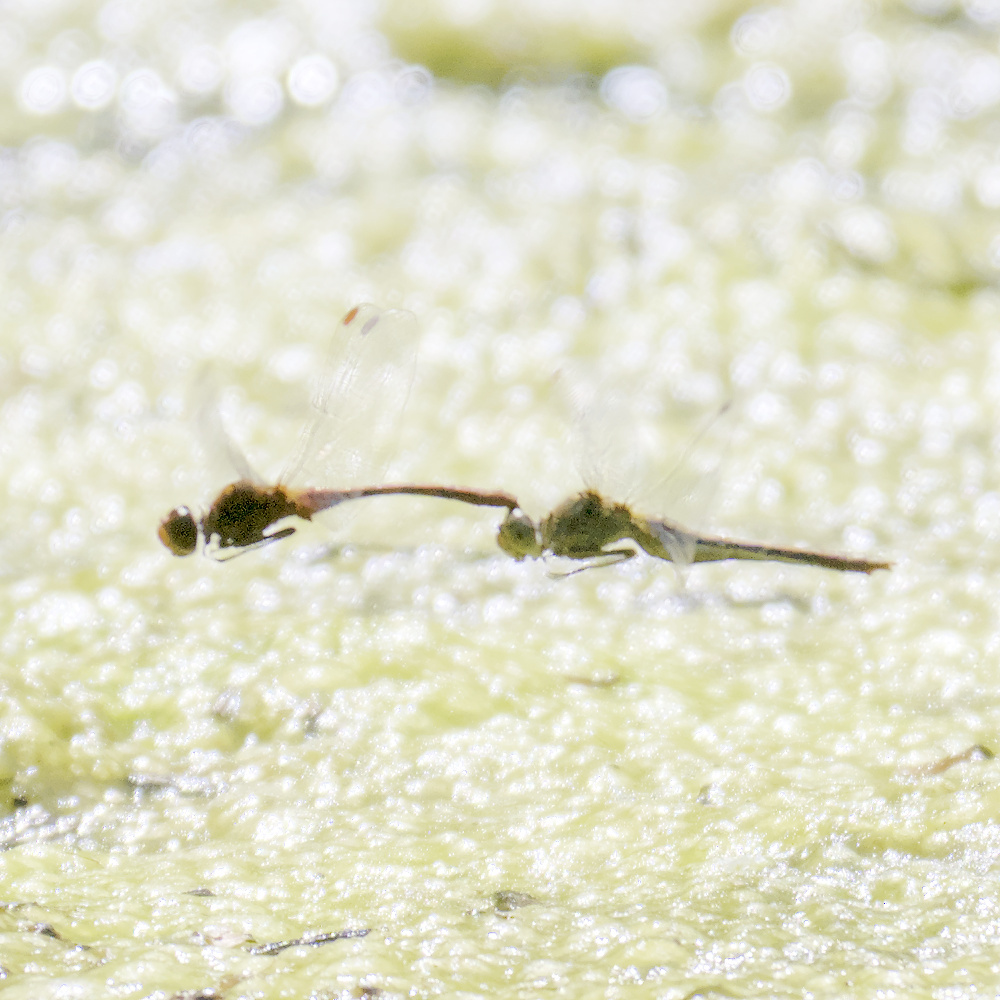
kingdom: Animalia
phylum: Arthropoda
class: Insecta
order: Odonata
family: Libellulidae
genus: Diplacodes
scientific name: Diplacodes bipunctata
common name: Red percher dragonfly
